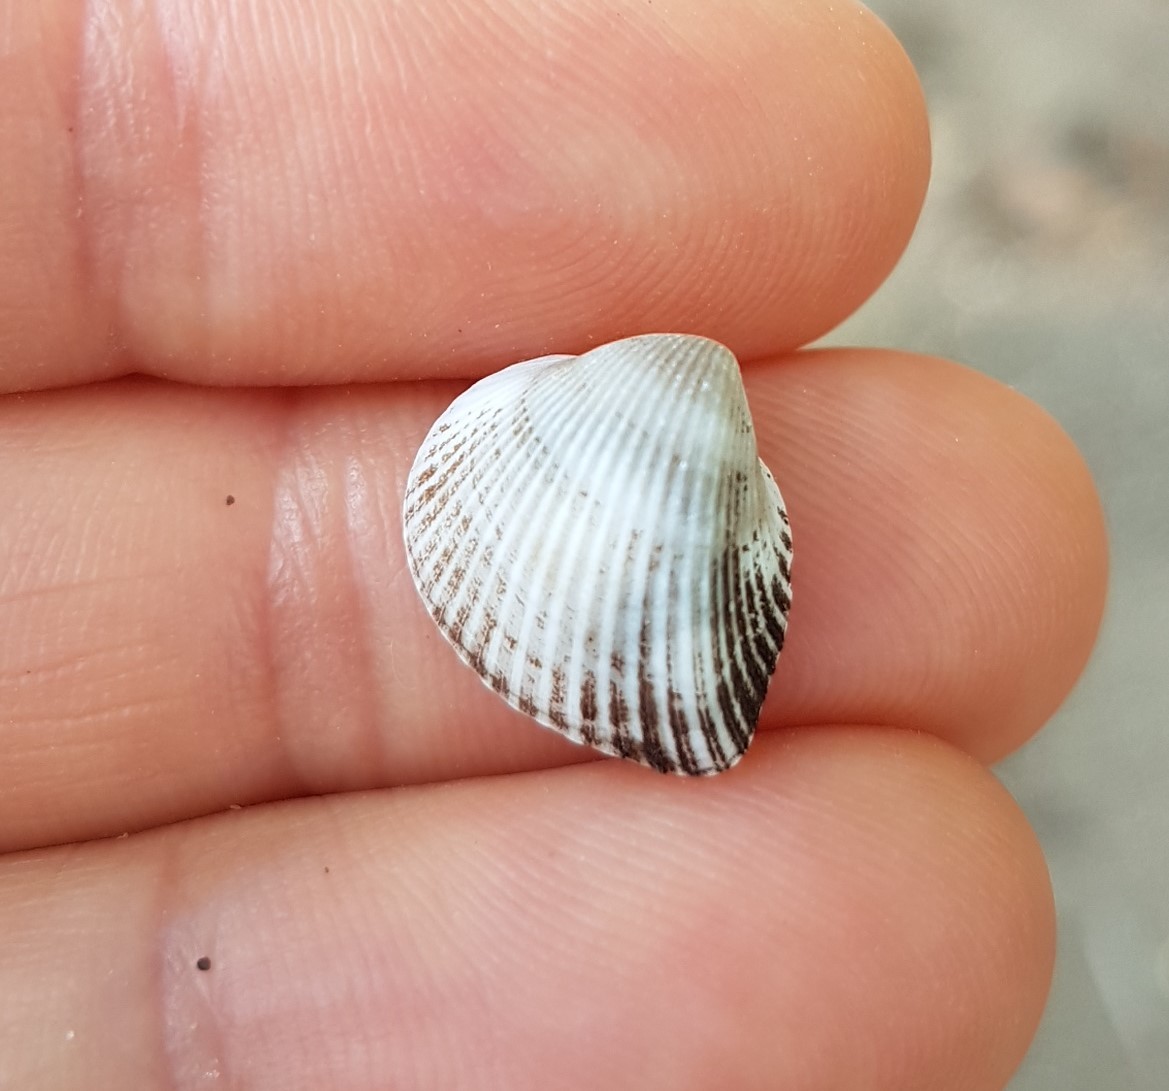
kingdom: Animalia
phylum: Mollusca
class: Bivalvia
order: Arcida
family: Noetiidae
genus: Noetia
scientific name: Noetia reversa
